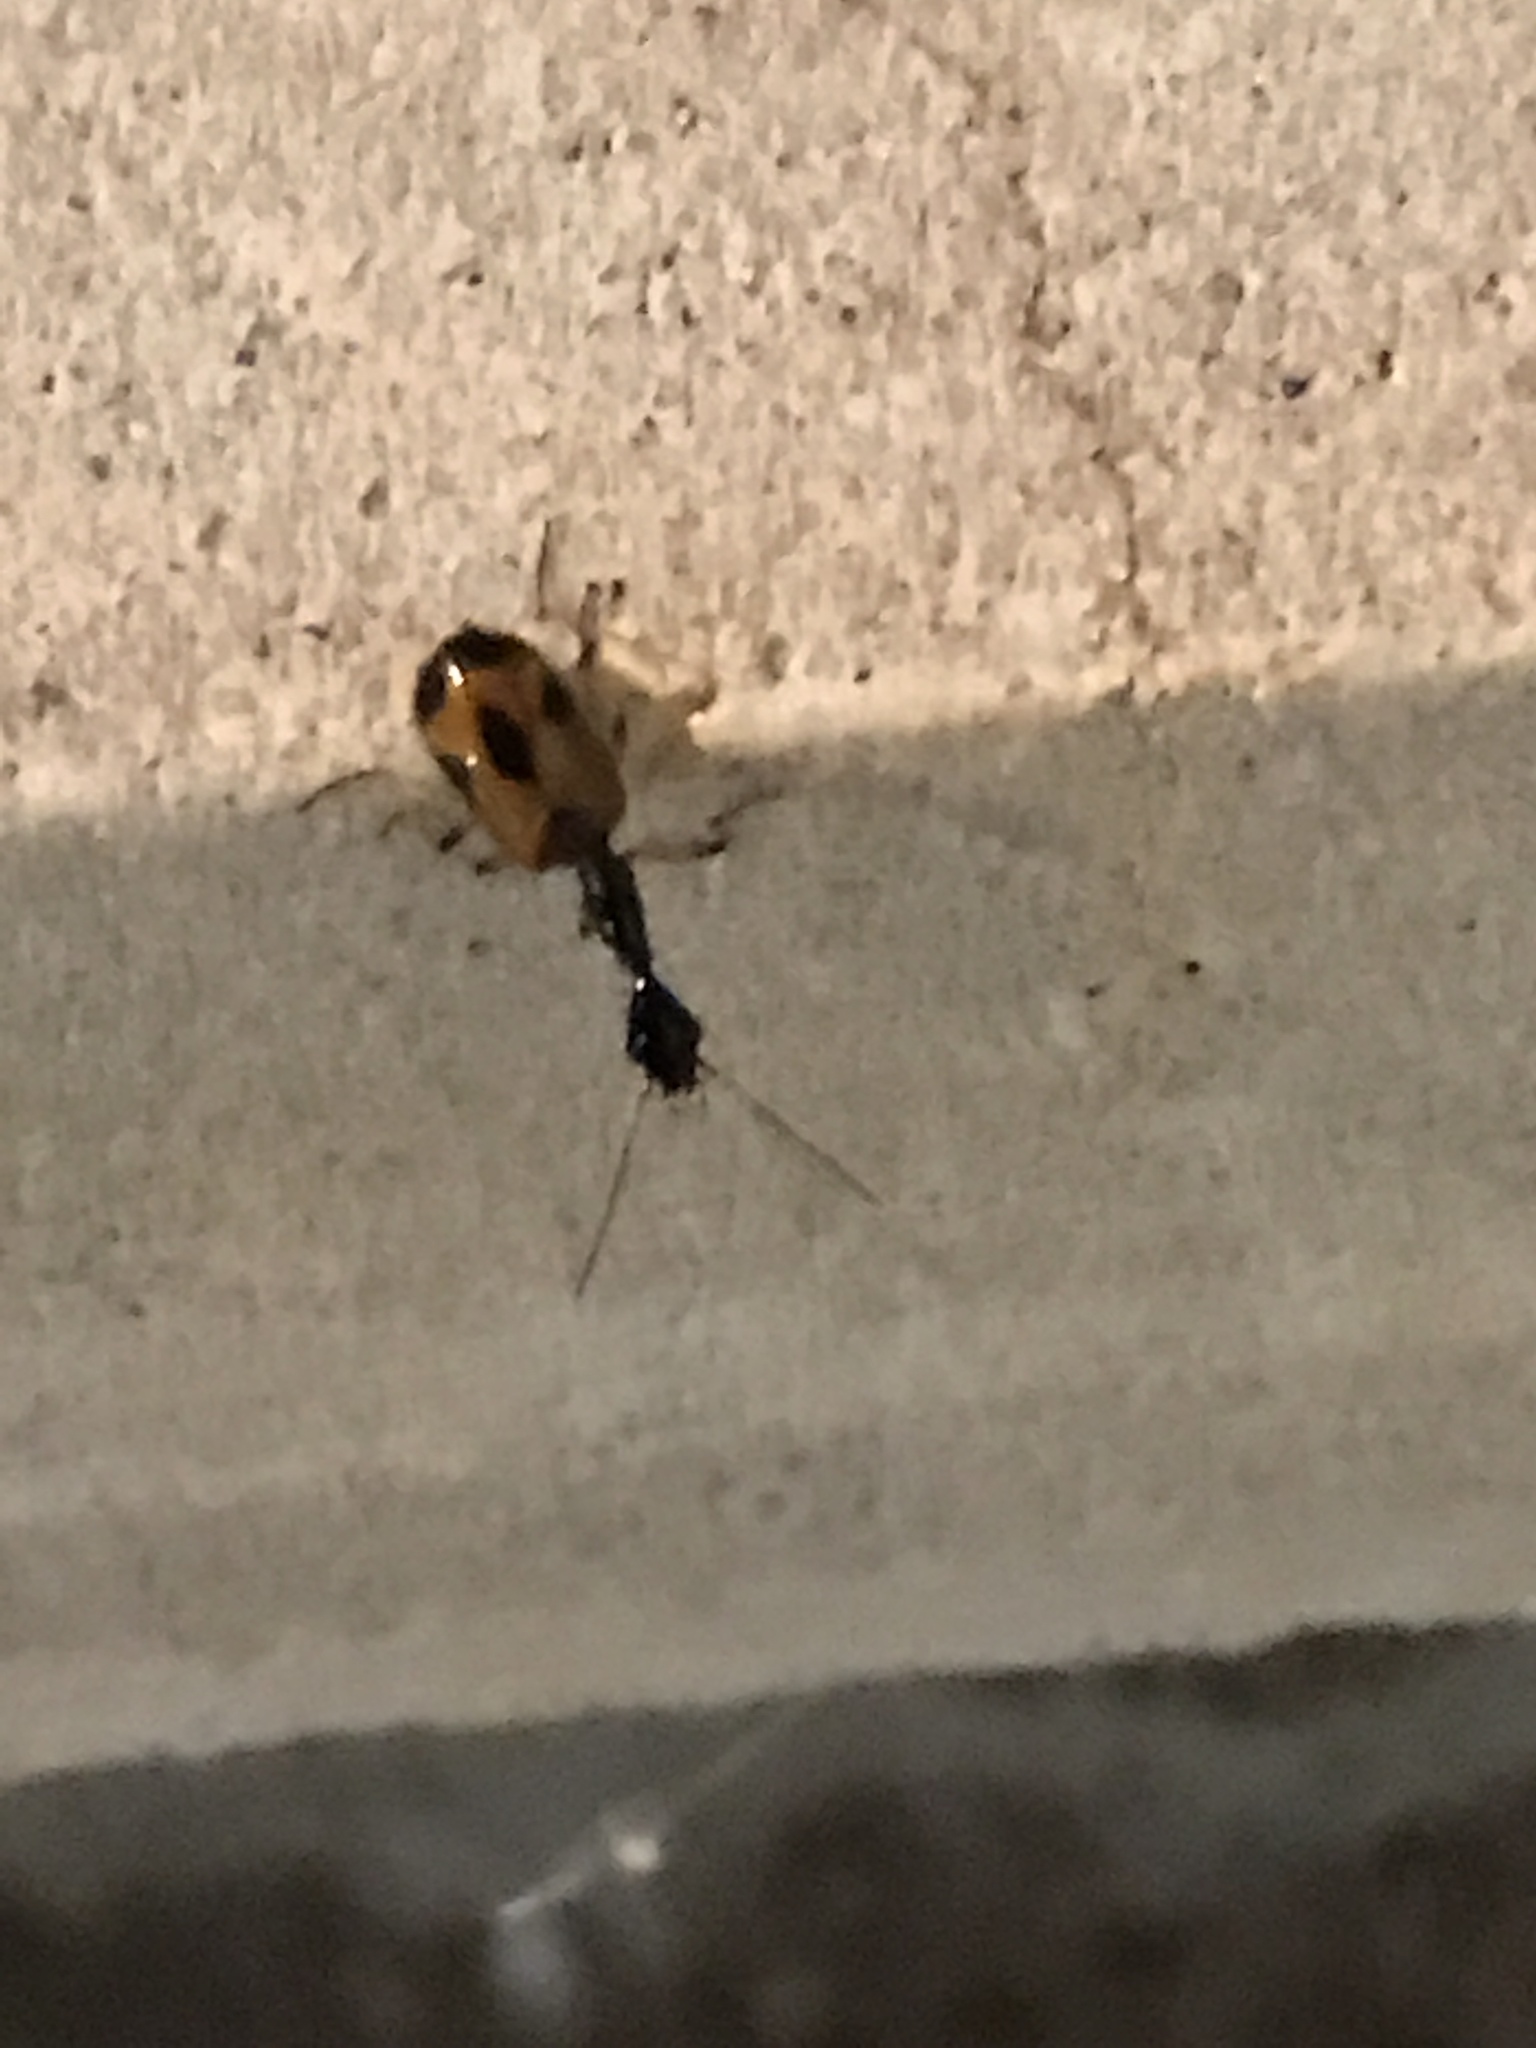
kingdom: Animalia
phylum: Arthropoda
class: Insecta
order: Coleoptera
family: Carabidae
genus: Colliuris
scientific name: Colliuris pensylvanica
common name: Long-necked ground beetle
